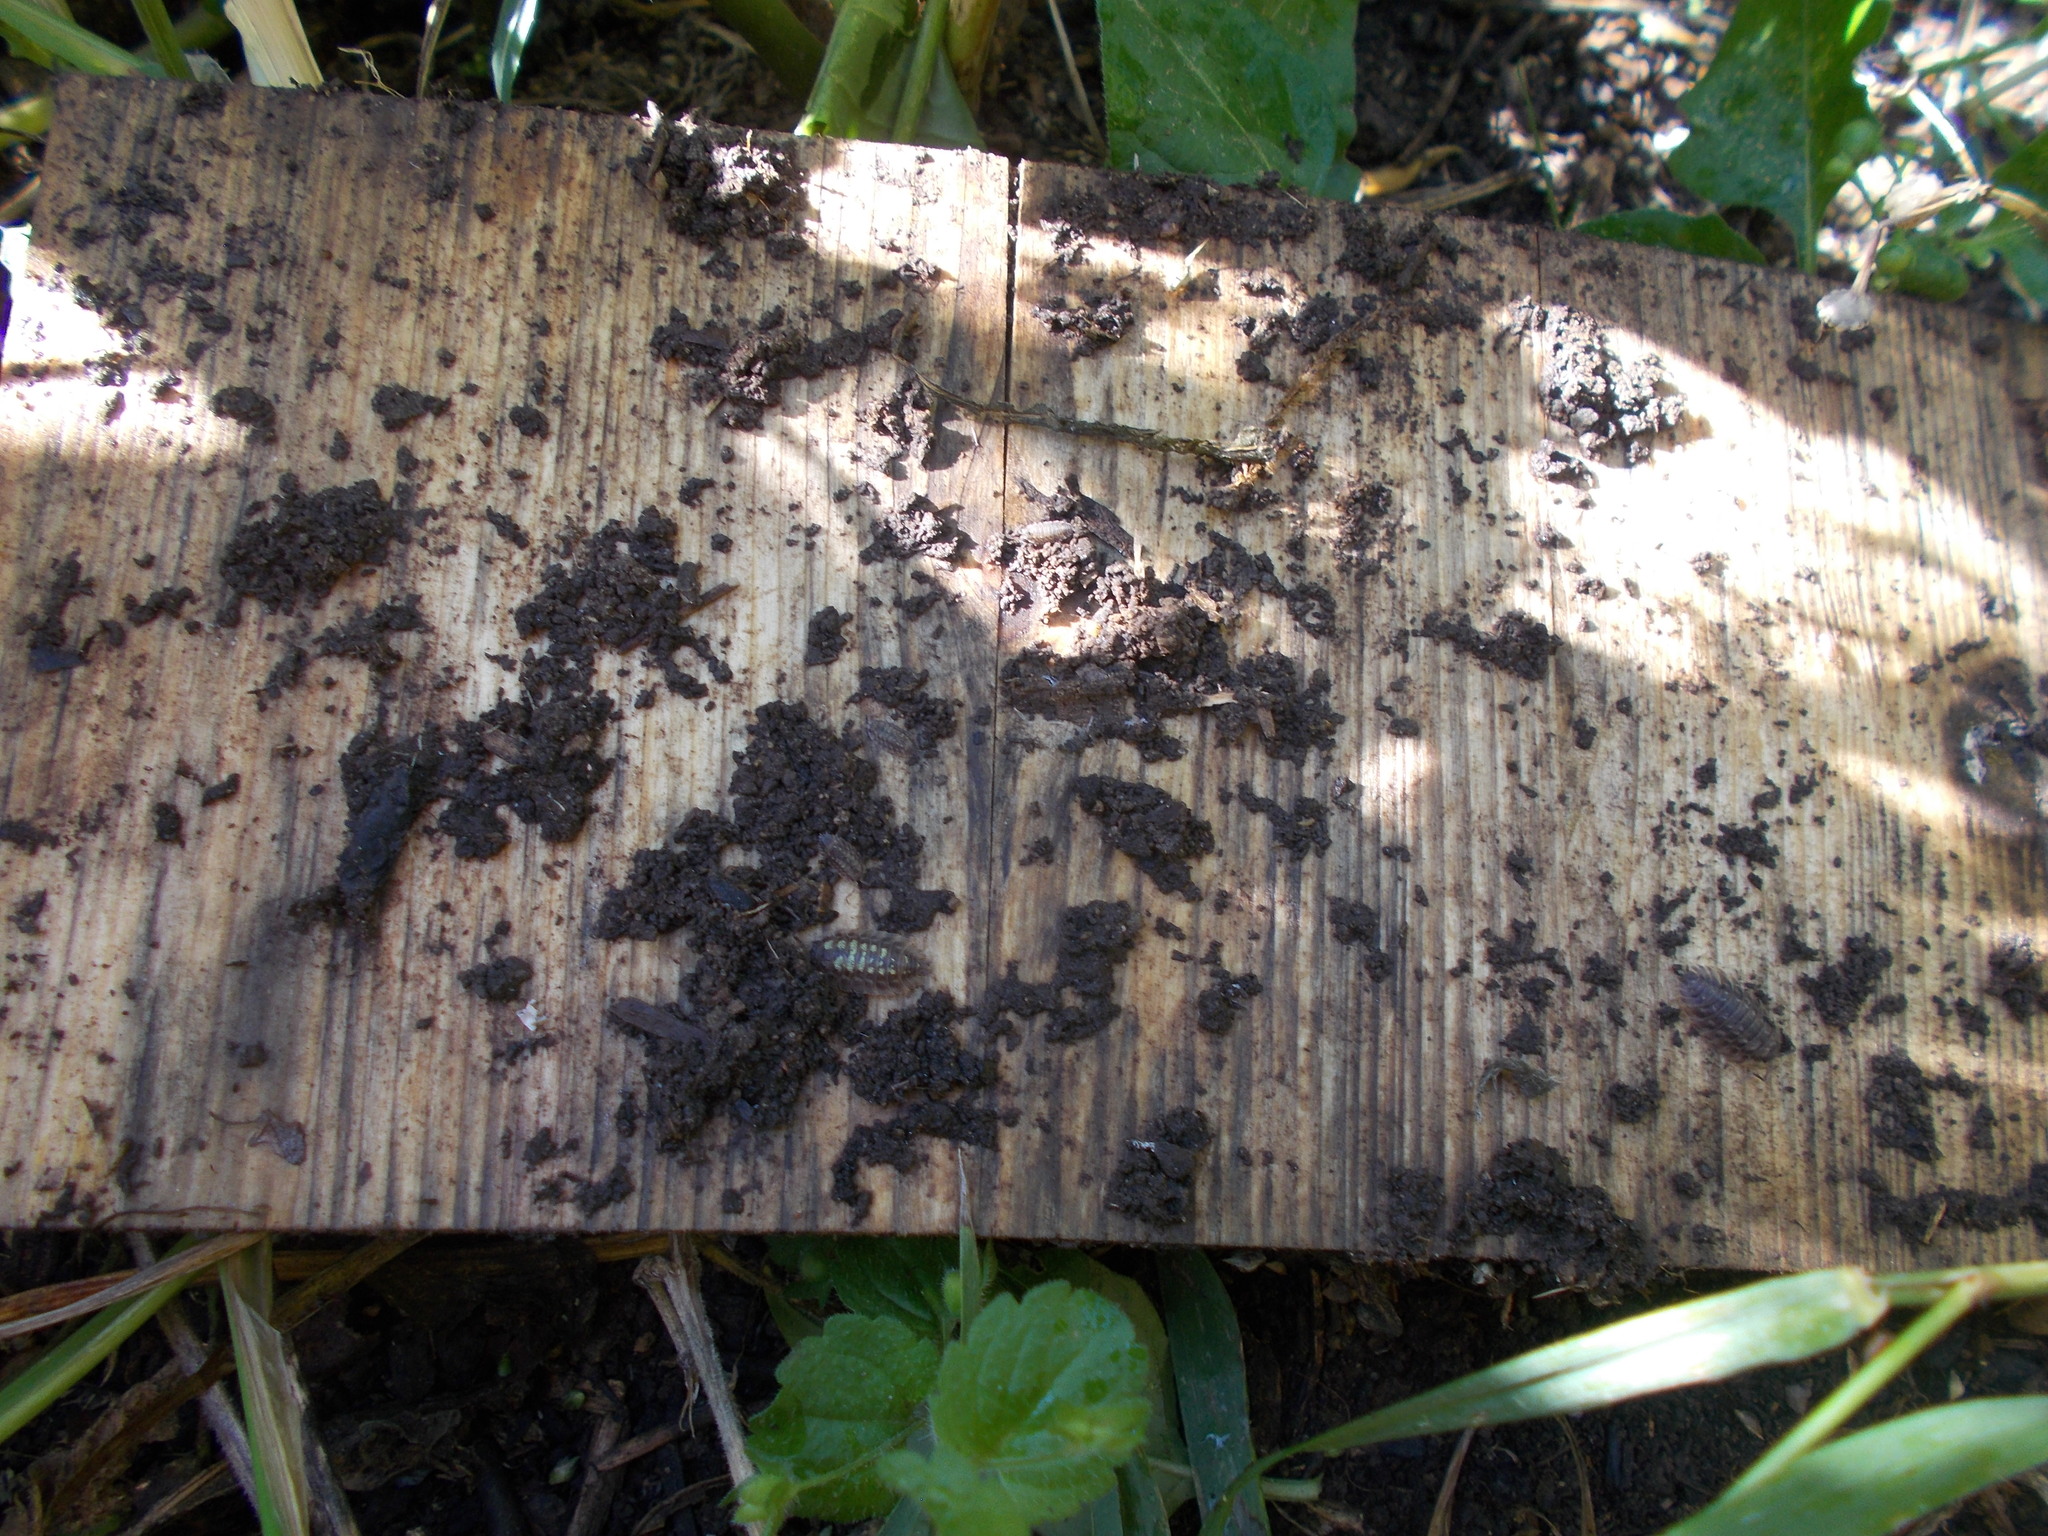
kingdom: Animalia
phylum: Arthropoda
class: Malacostraca
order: Isopoda
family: Oniscidae
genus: Oniscus
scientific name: Oniscus asellus
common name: Common shiny woodlouse
